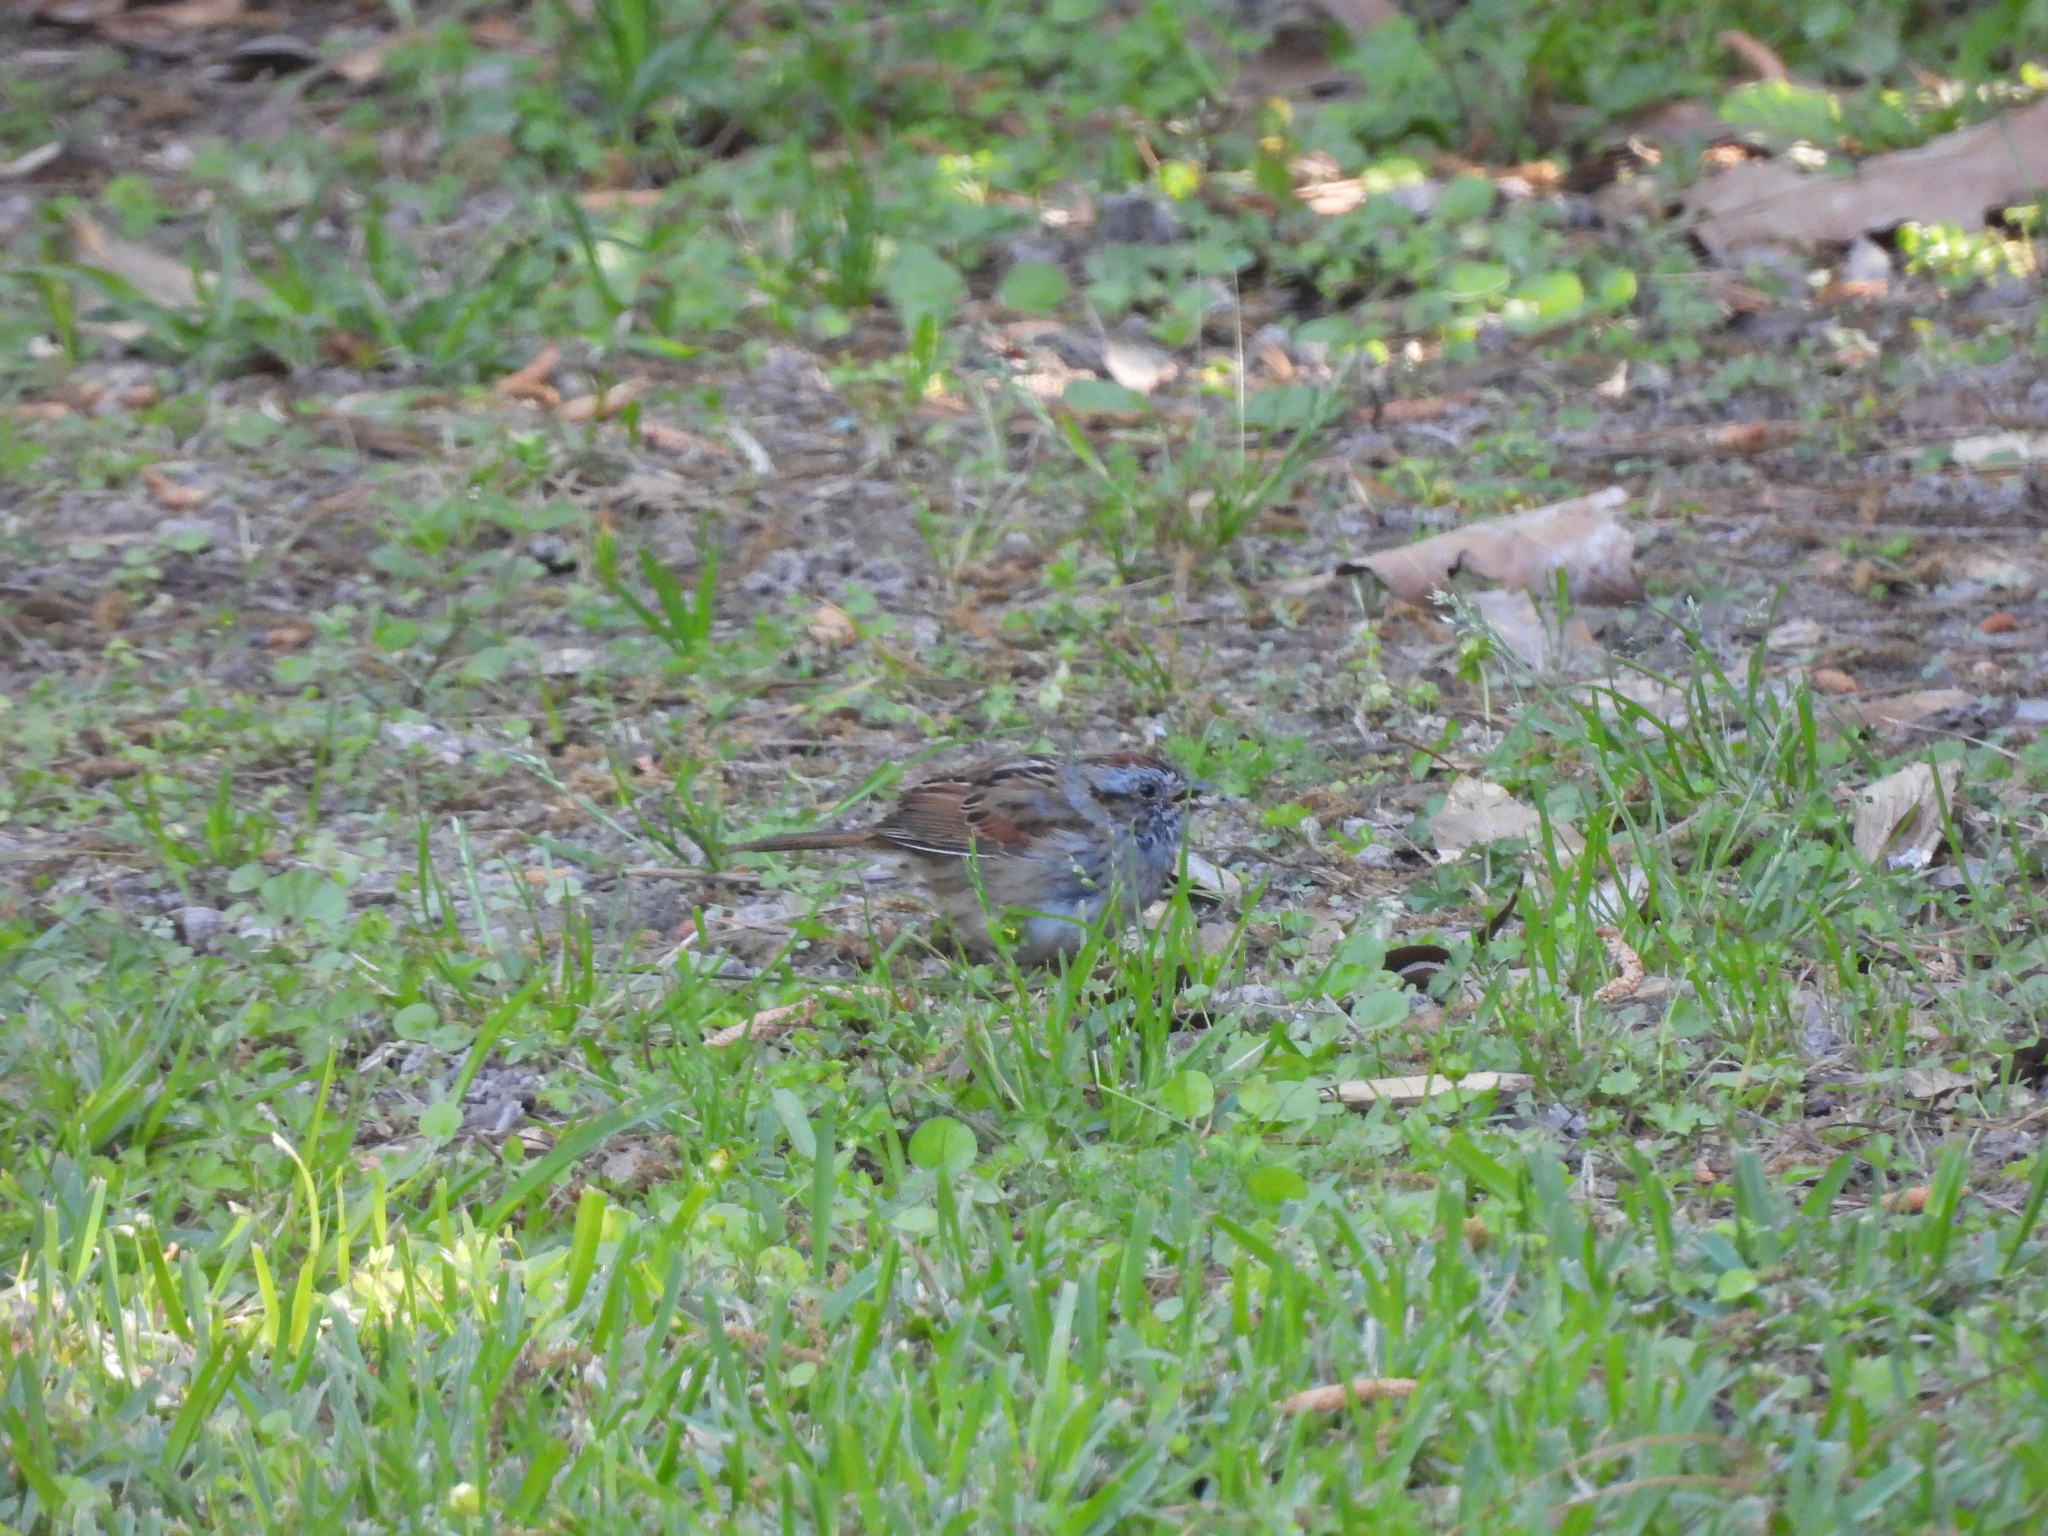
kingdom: Animalia
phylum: Chordata
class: Aves
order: Passeriformes
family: Passerellidae
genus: Melospiza
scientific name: Melospiza georgiana
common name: Swamp sparrow
